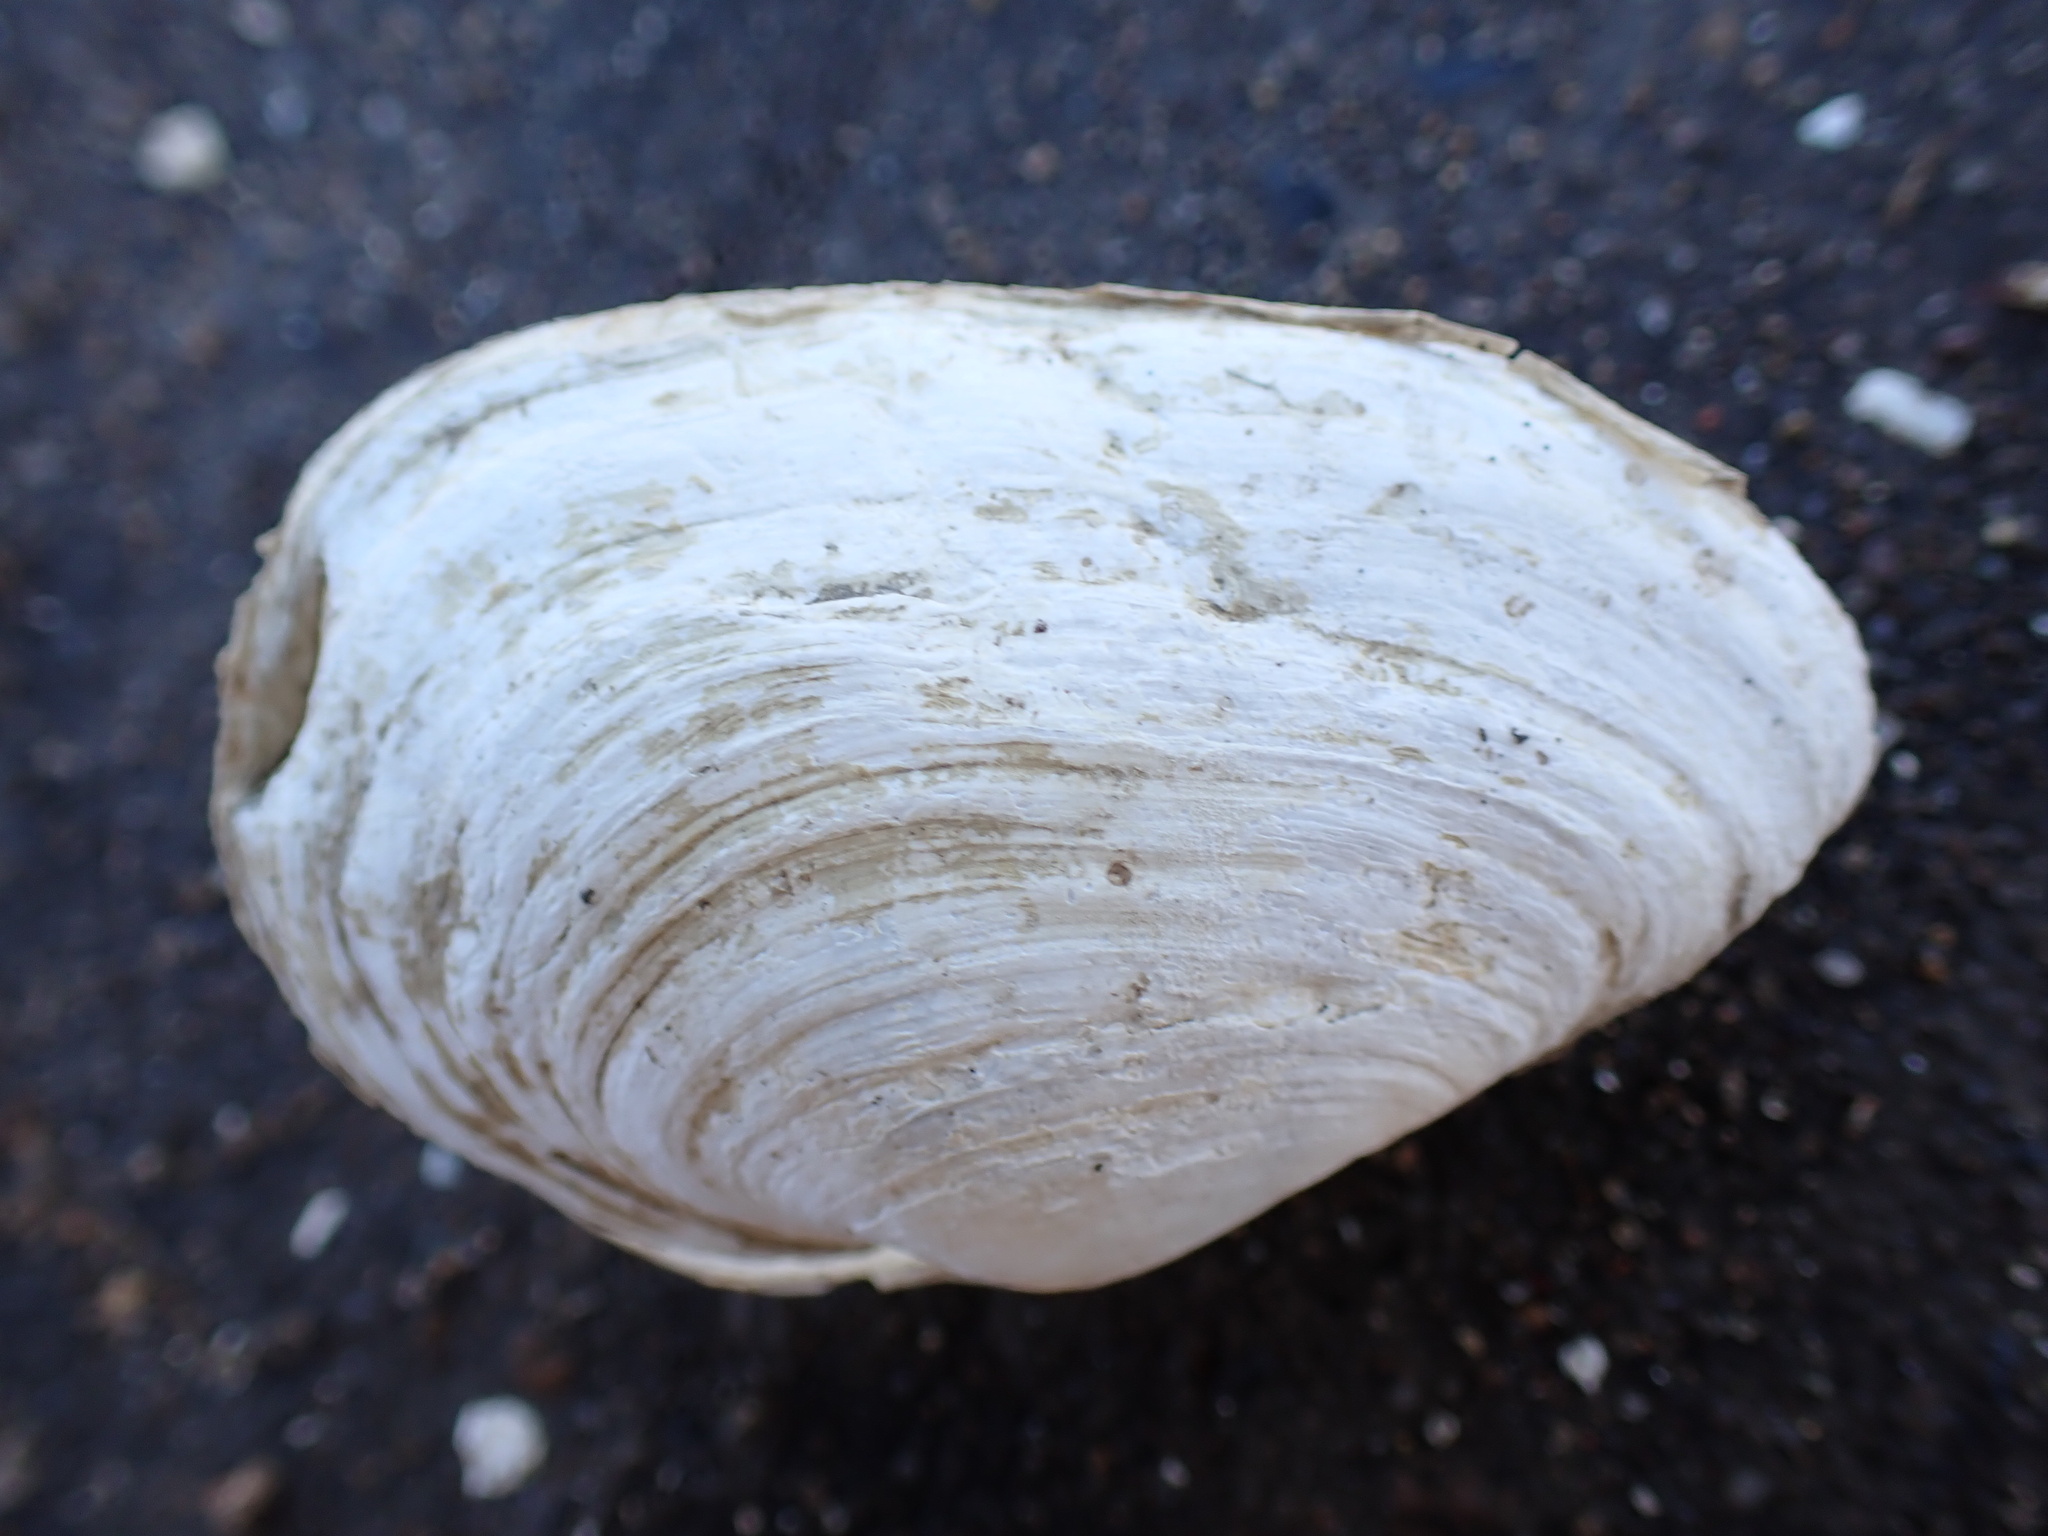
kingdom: Animalia
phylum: Mollusca
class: Bivalvia
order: Myida
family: Myidae
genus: Mya
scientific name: Mya arenaria
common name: Soft-shelled clam
